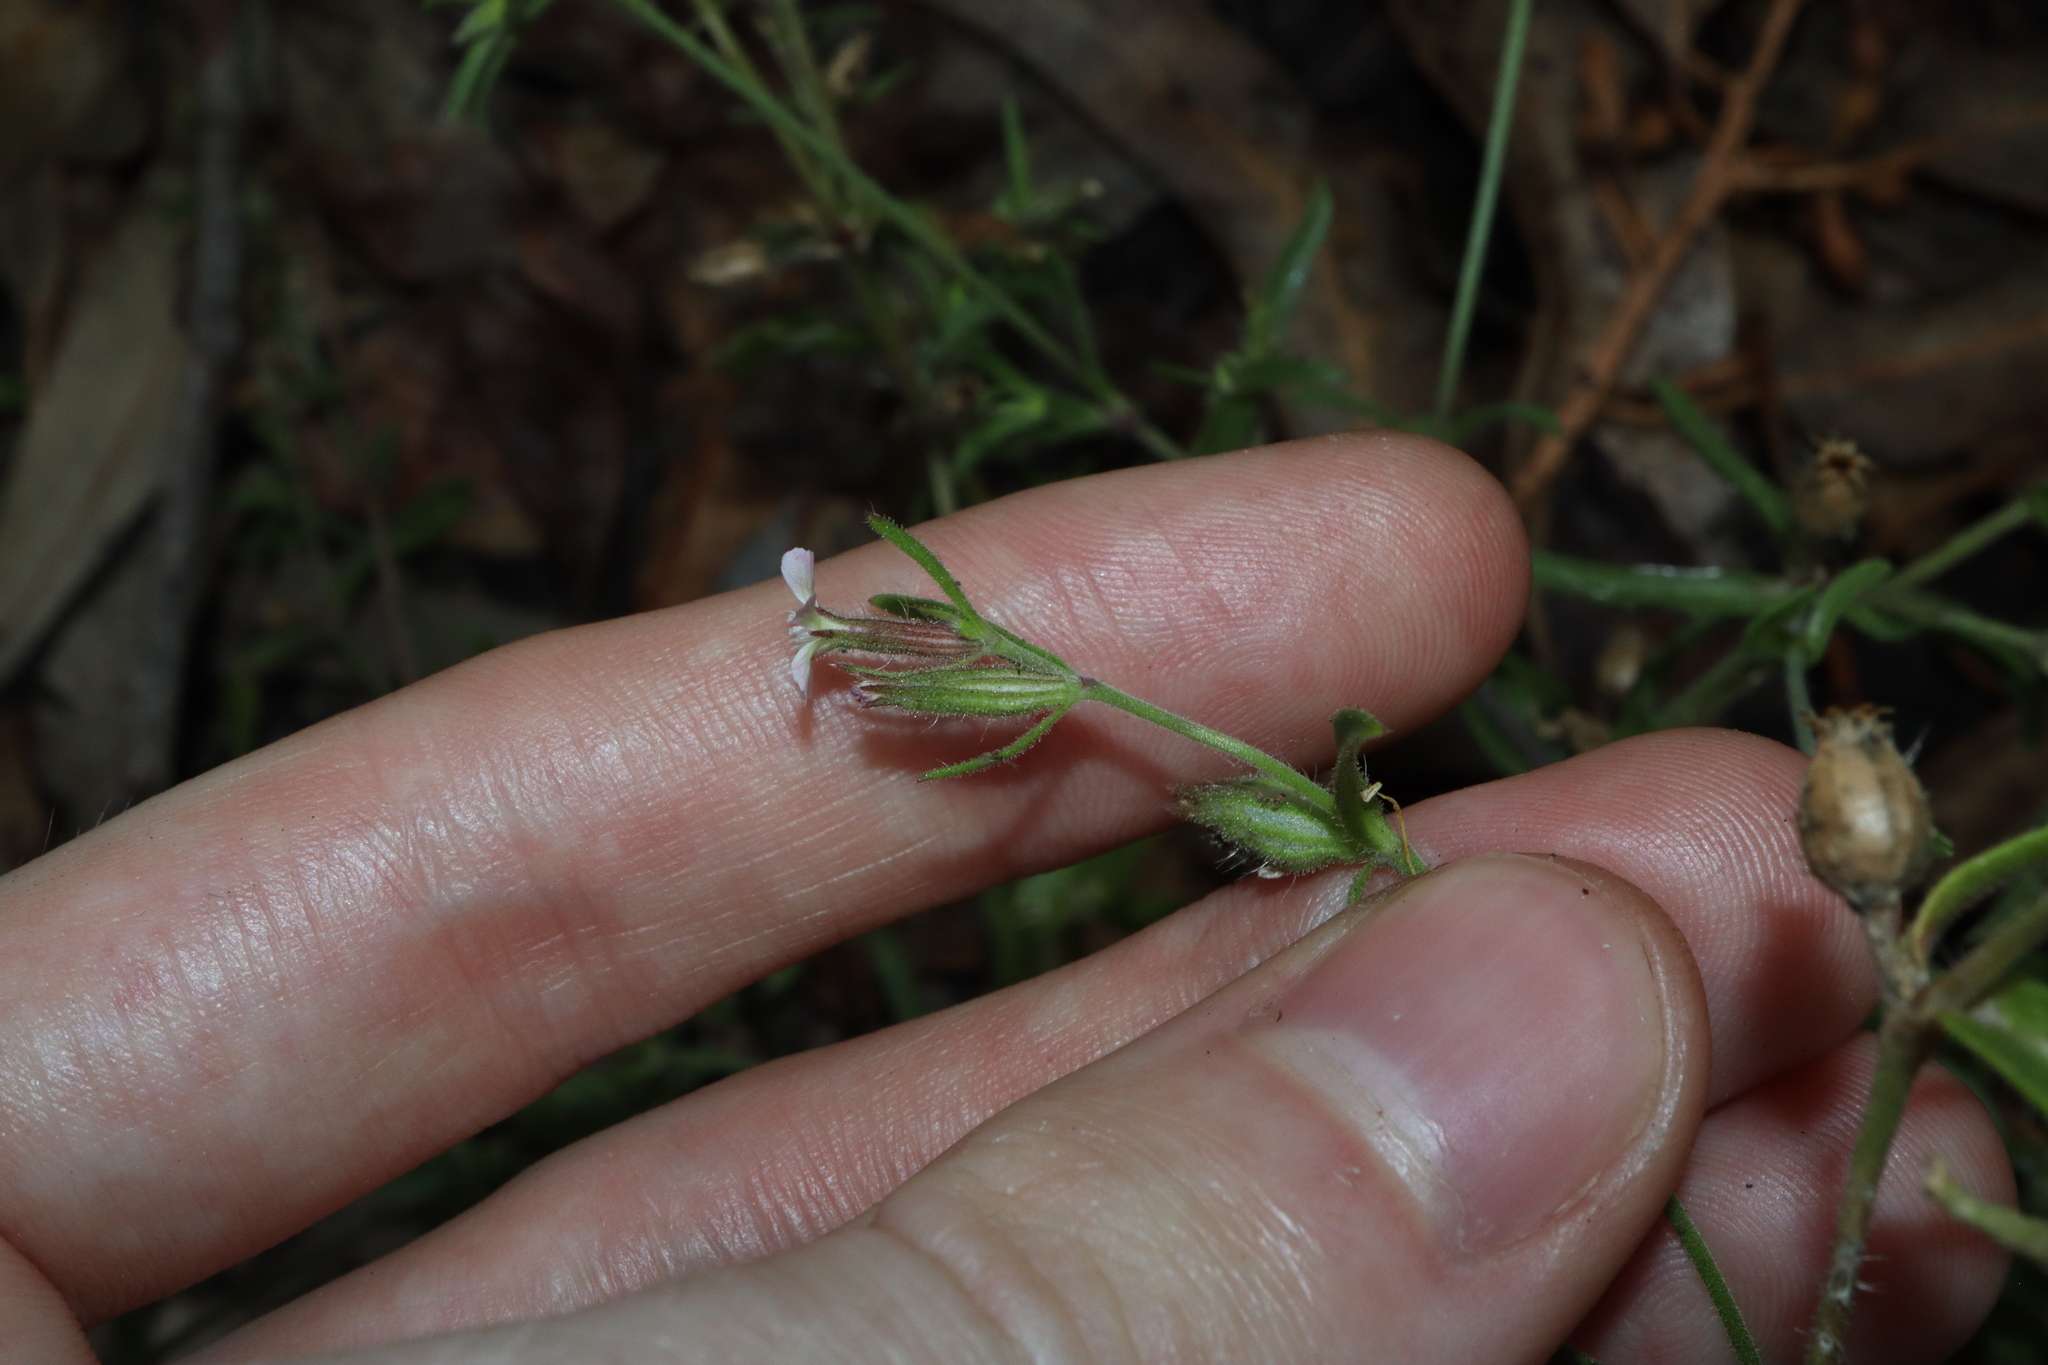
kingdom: Plantae
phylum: Tracheophyta
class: Magnoliopsida
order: Caryophyllales
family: Caryophyllaceae
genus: Silene
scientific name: Silene gallica
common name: Small-flowered catchfly
